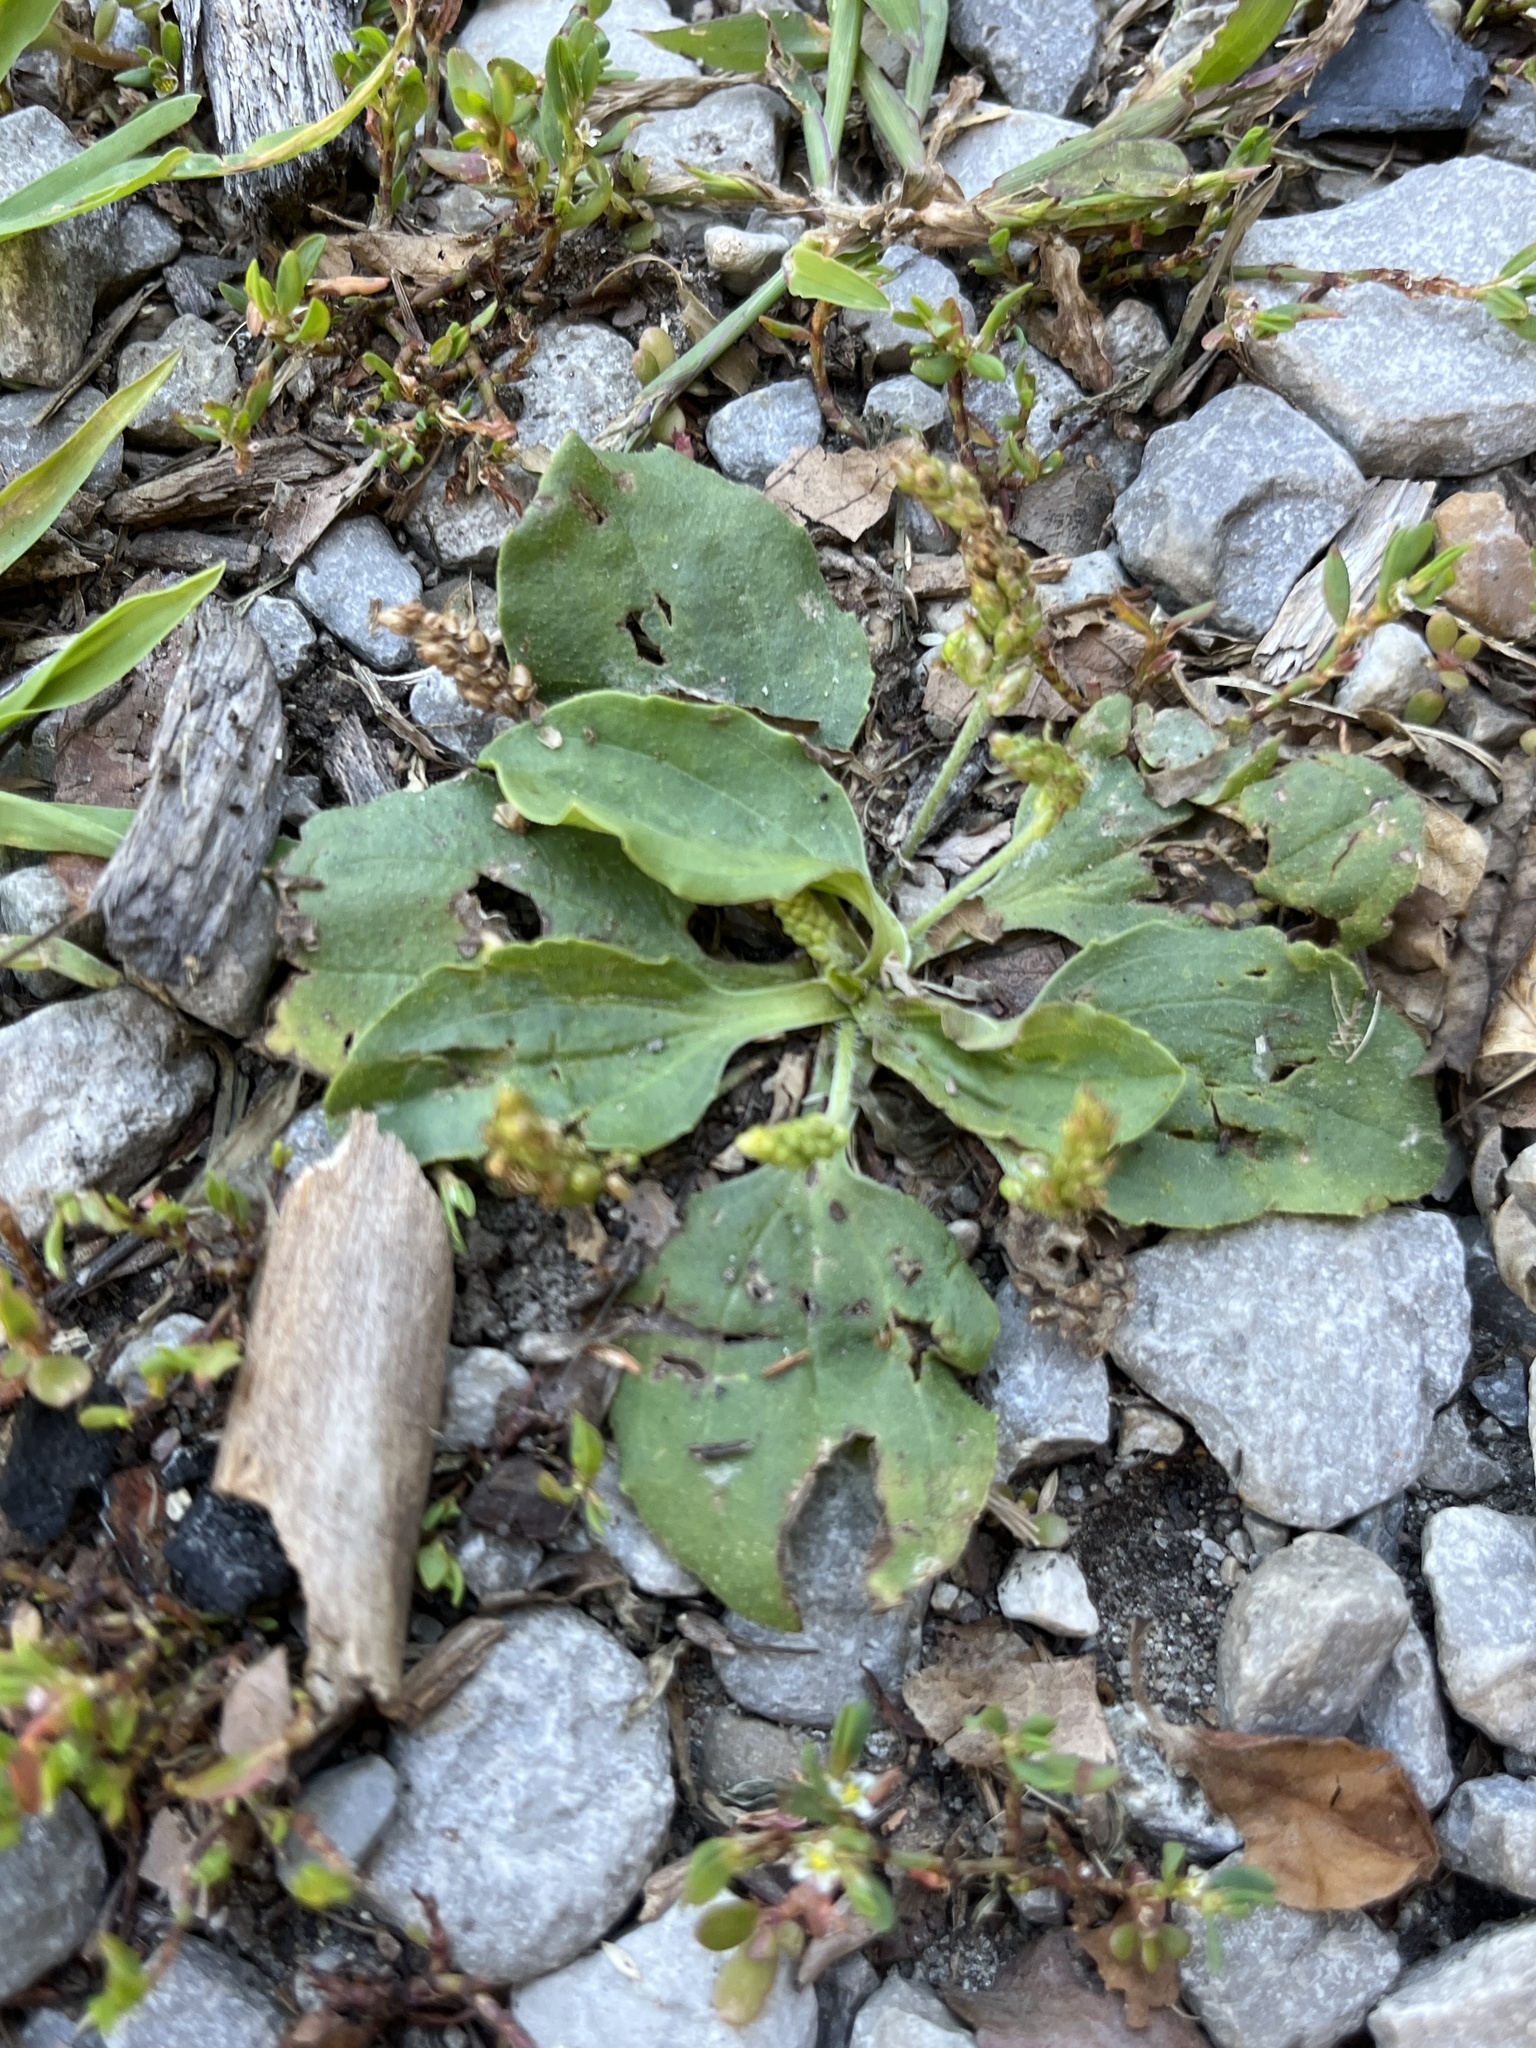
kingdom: Plantae
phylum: Tracheophyta
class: Magnoliopsida
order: Lamiales
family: Plantaginaceae
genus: Plantago
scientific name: Plantago major
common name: Common plantain
